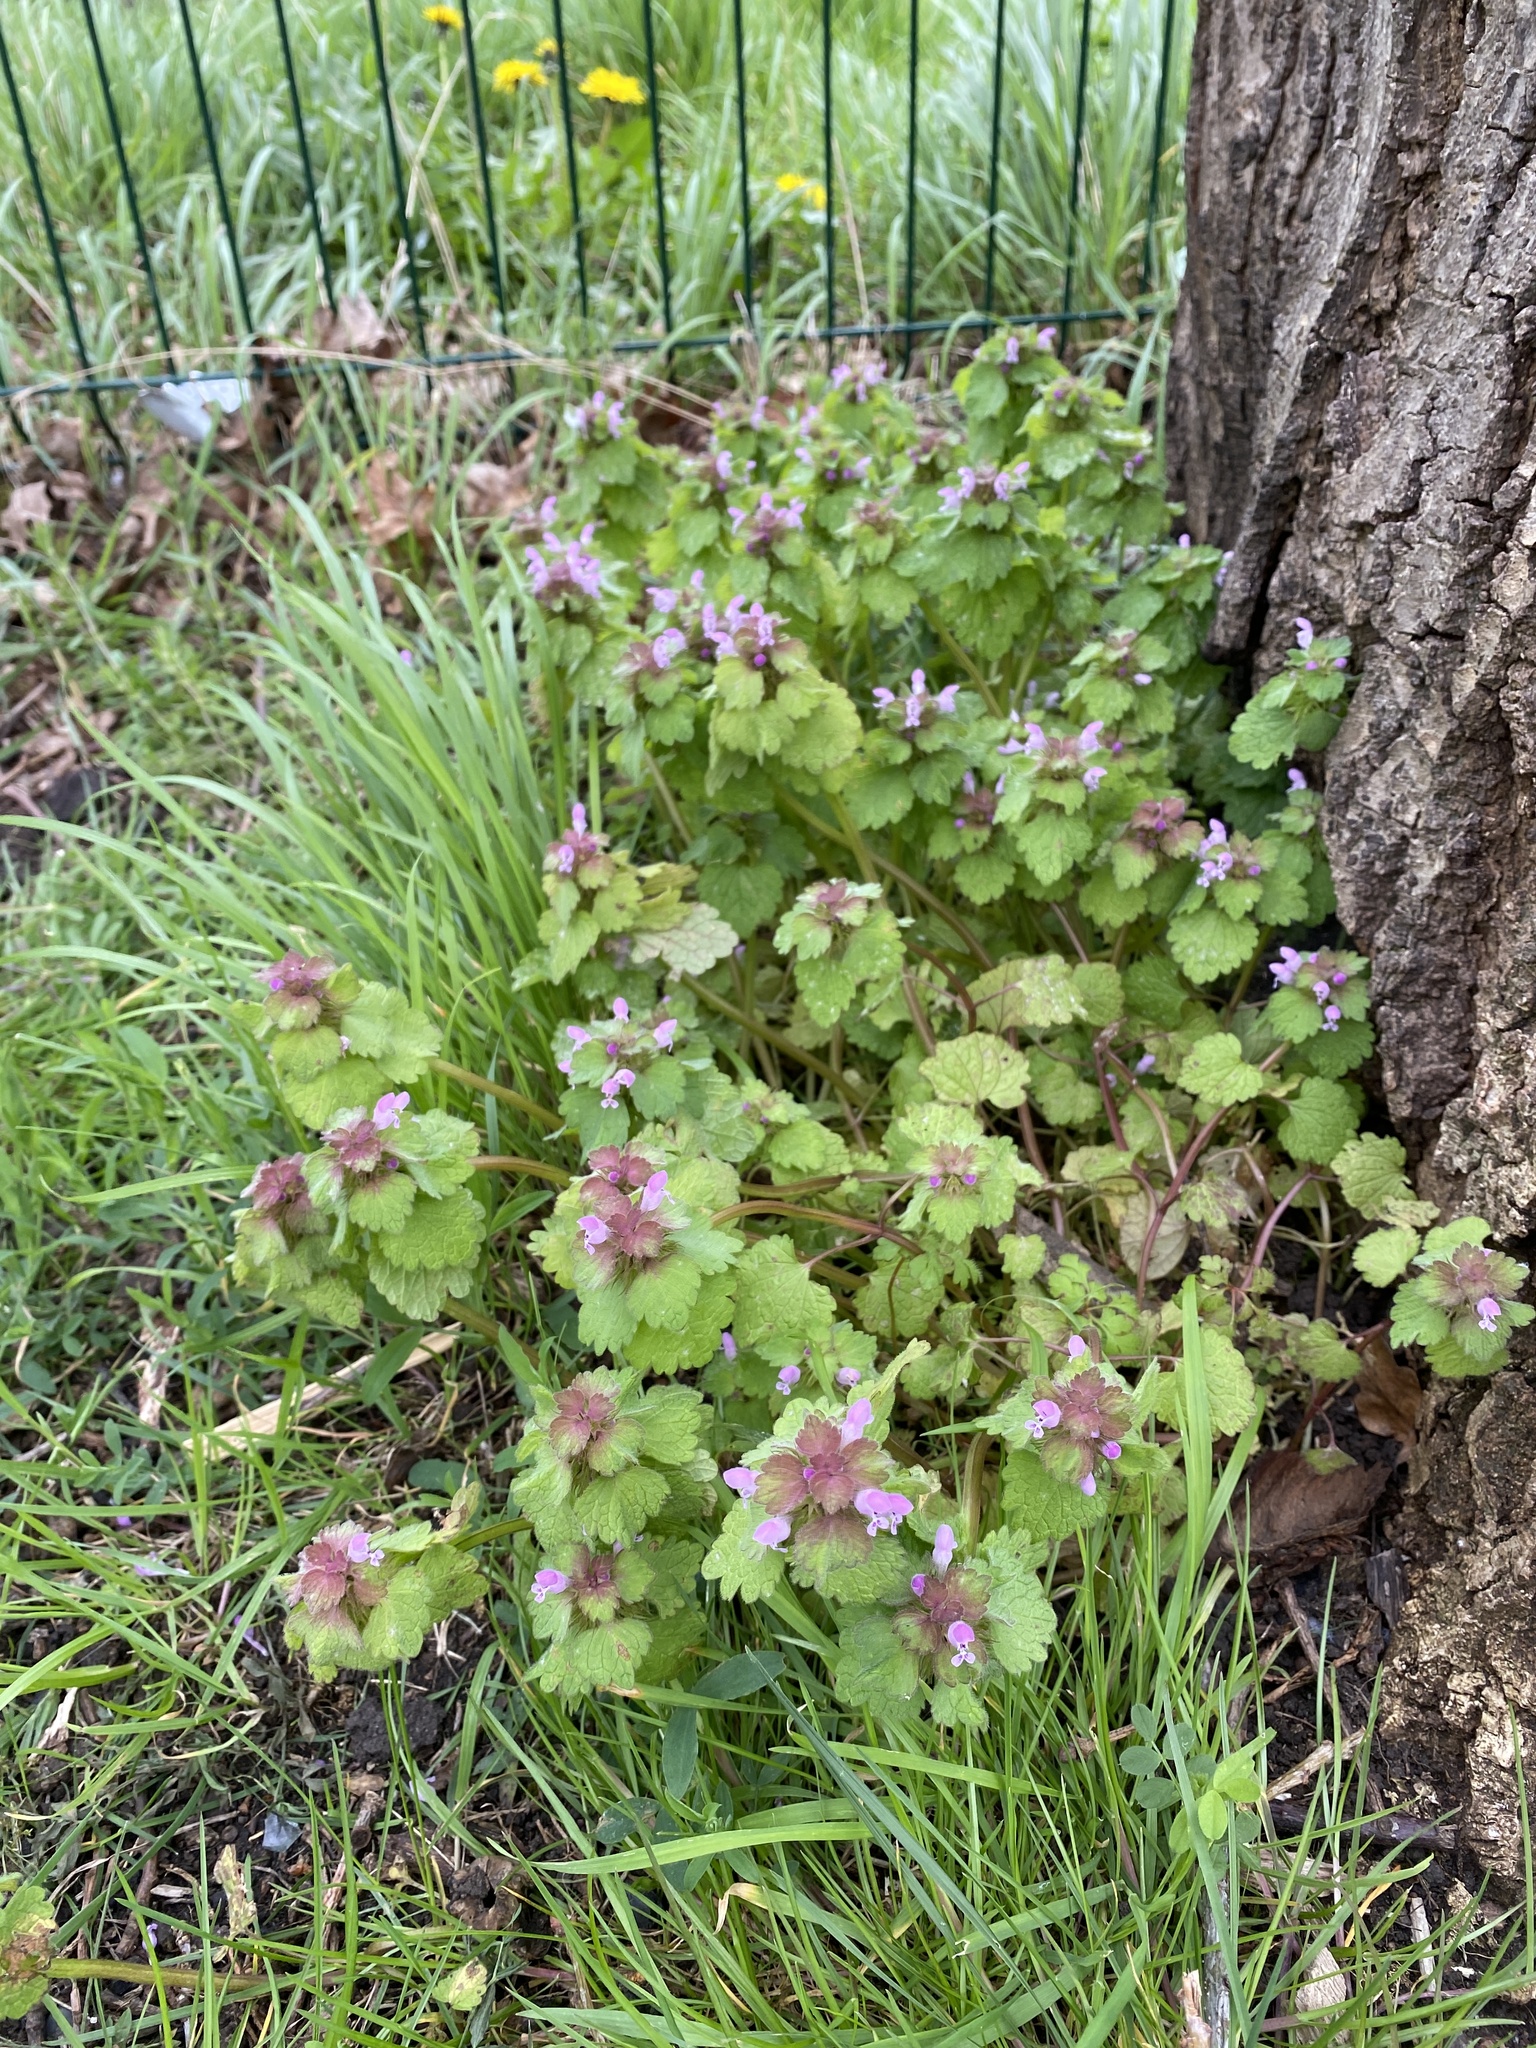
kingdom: Plantae
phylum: Tracheophyta
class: Magnoliopsida
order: Lamiales
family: Lamiaceae
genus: Lamium
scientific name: Lamium purpureum
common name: Red dead-nettle
